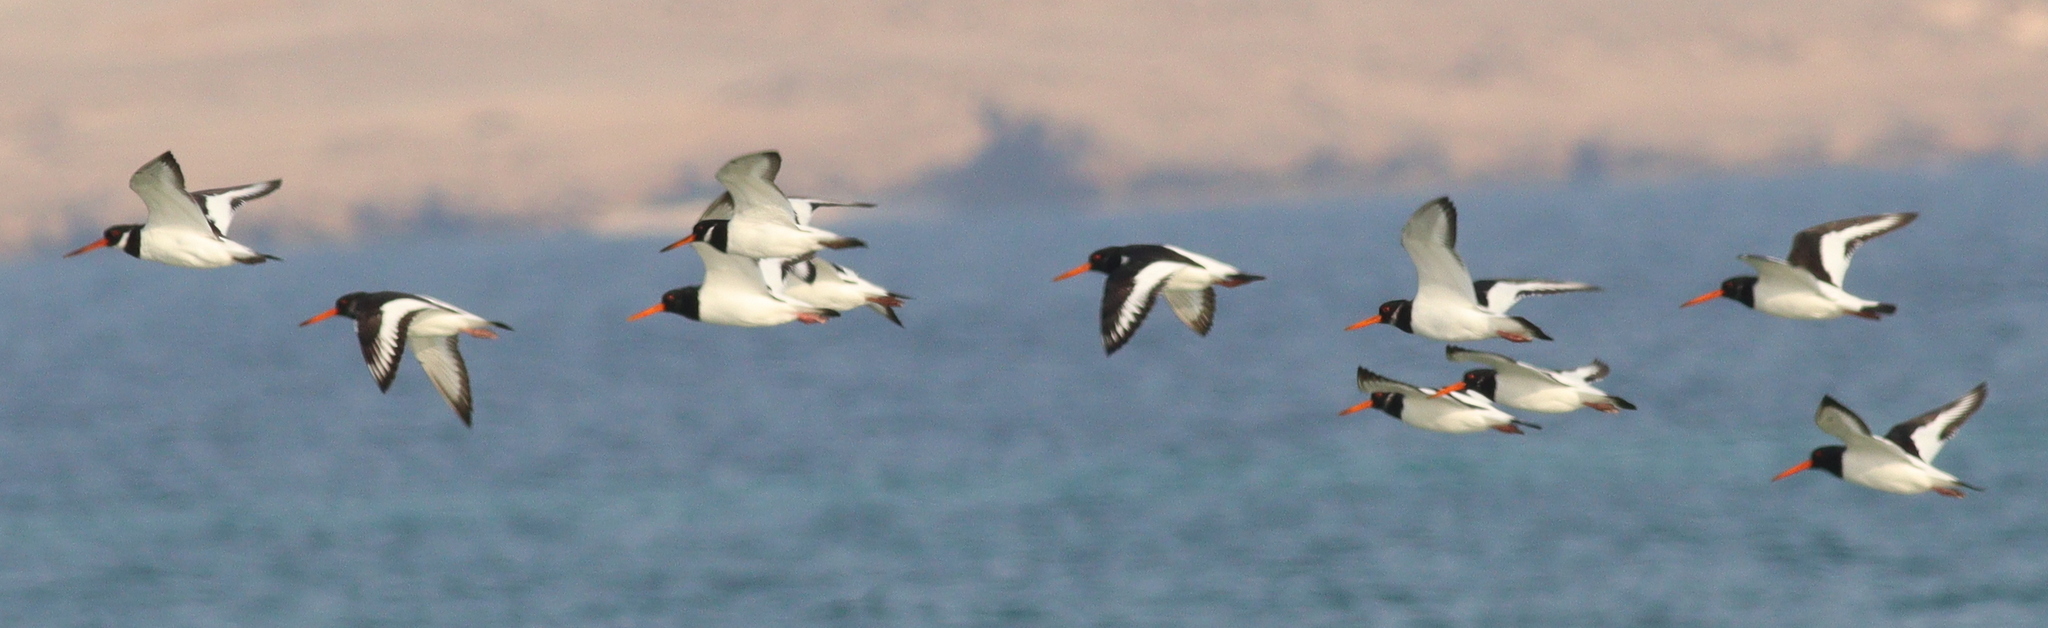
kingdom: Animalia
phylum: Chordata
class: Aves
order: Charadriiformes
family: Haematopodidae
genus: Haematopus
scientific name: Haematopus ostralegus
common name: Eurasian oystercatcher
